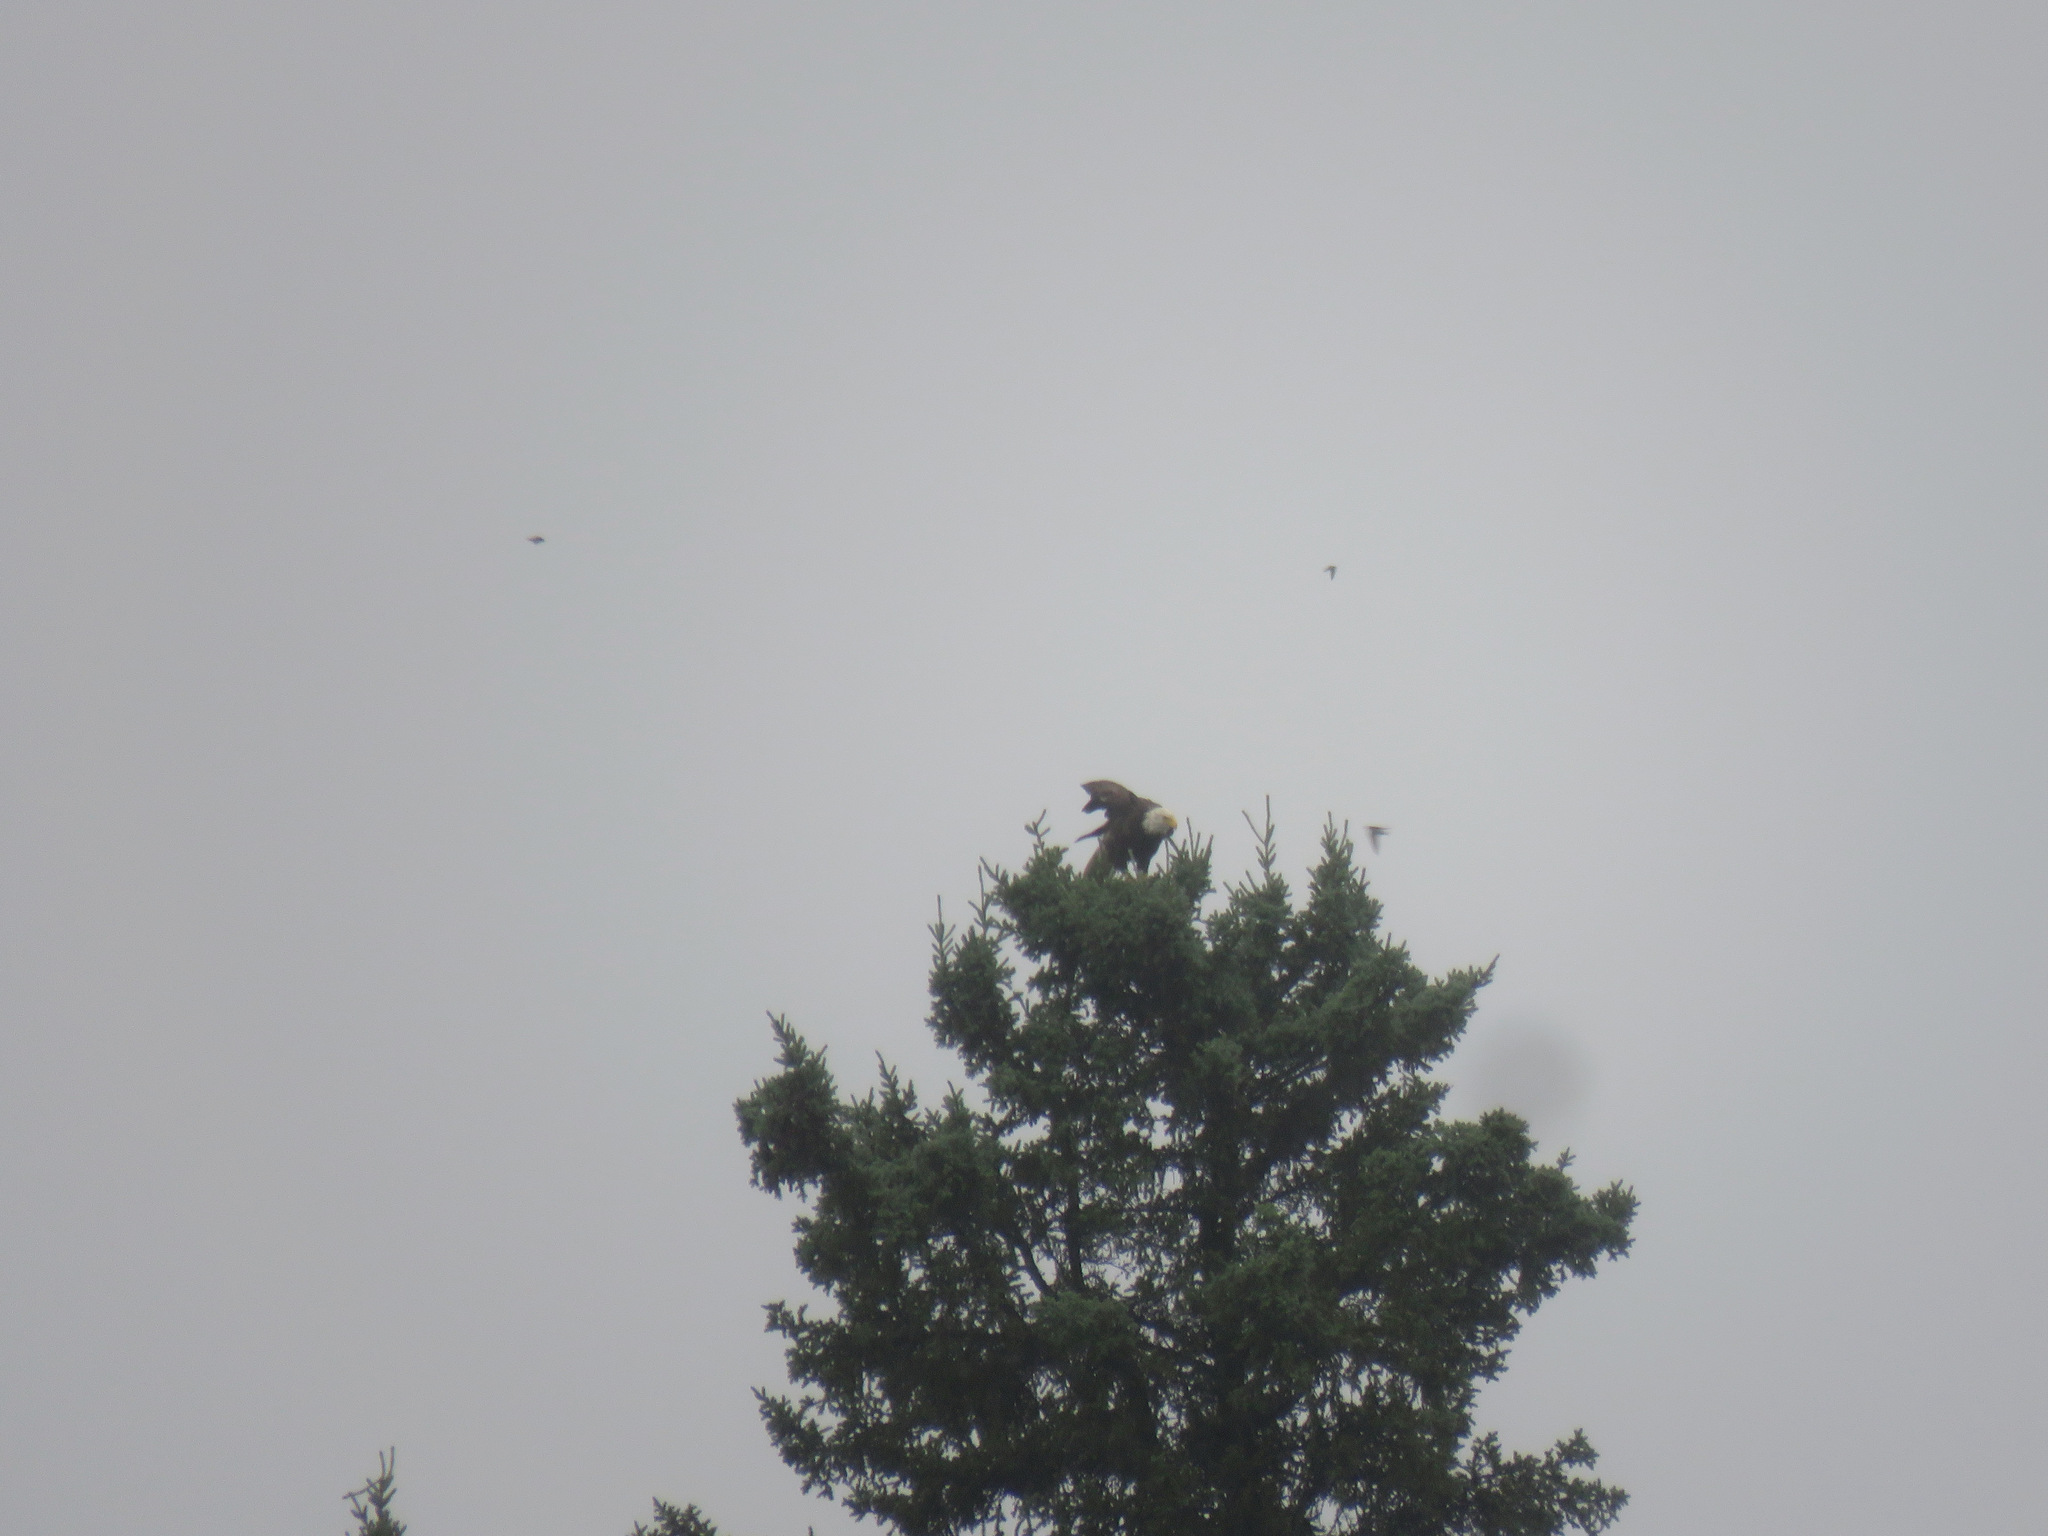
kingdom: Animalia
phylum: Chordata
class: Aves
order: Accipitriformes
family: Accipitridae
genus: Haliaeetus
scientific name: Haliaeetus leucocephalus
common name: Bald eagle
